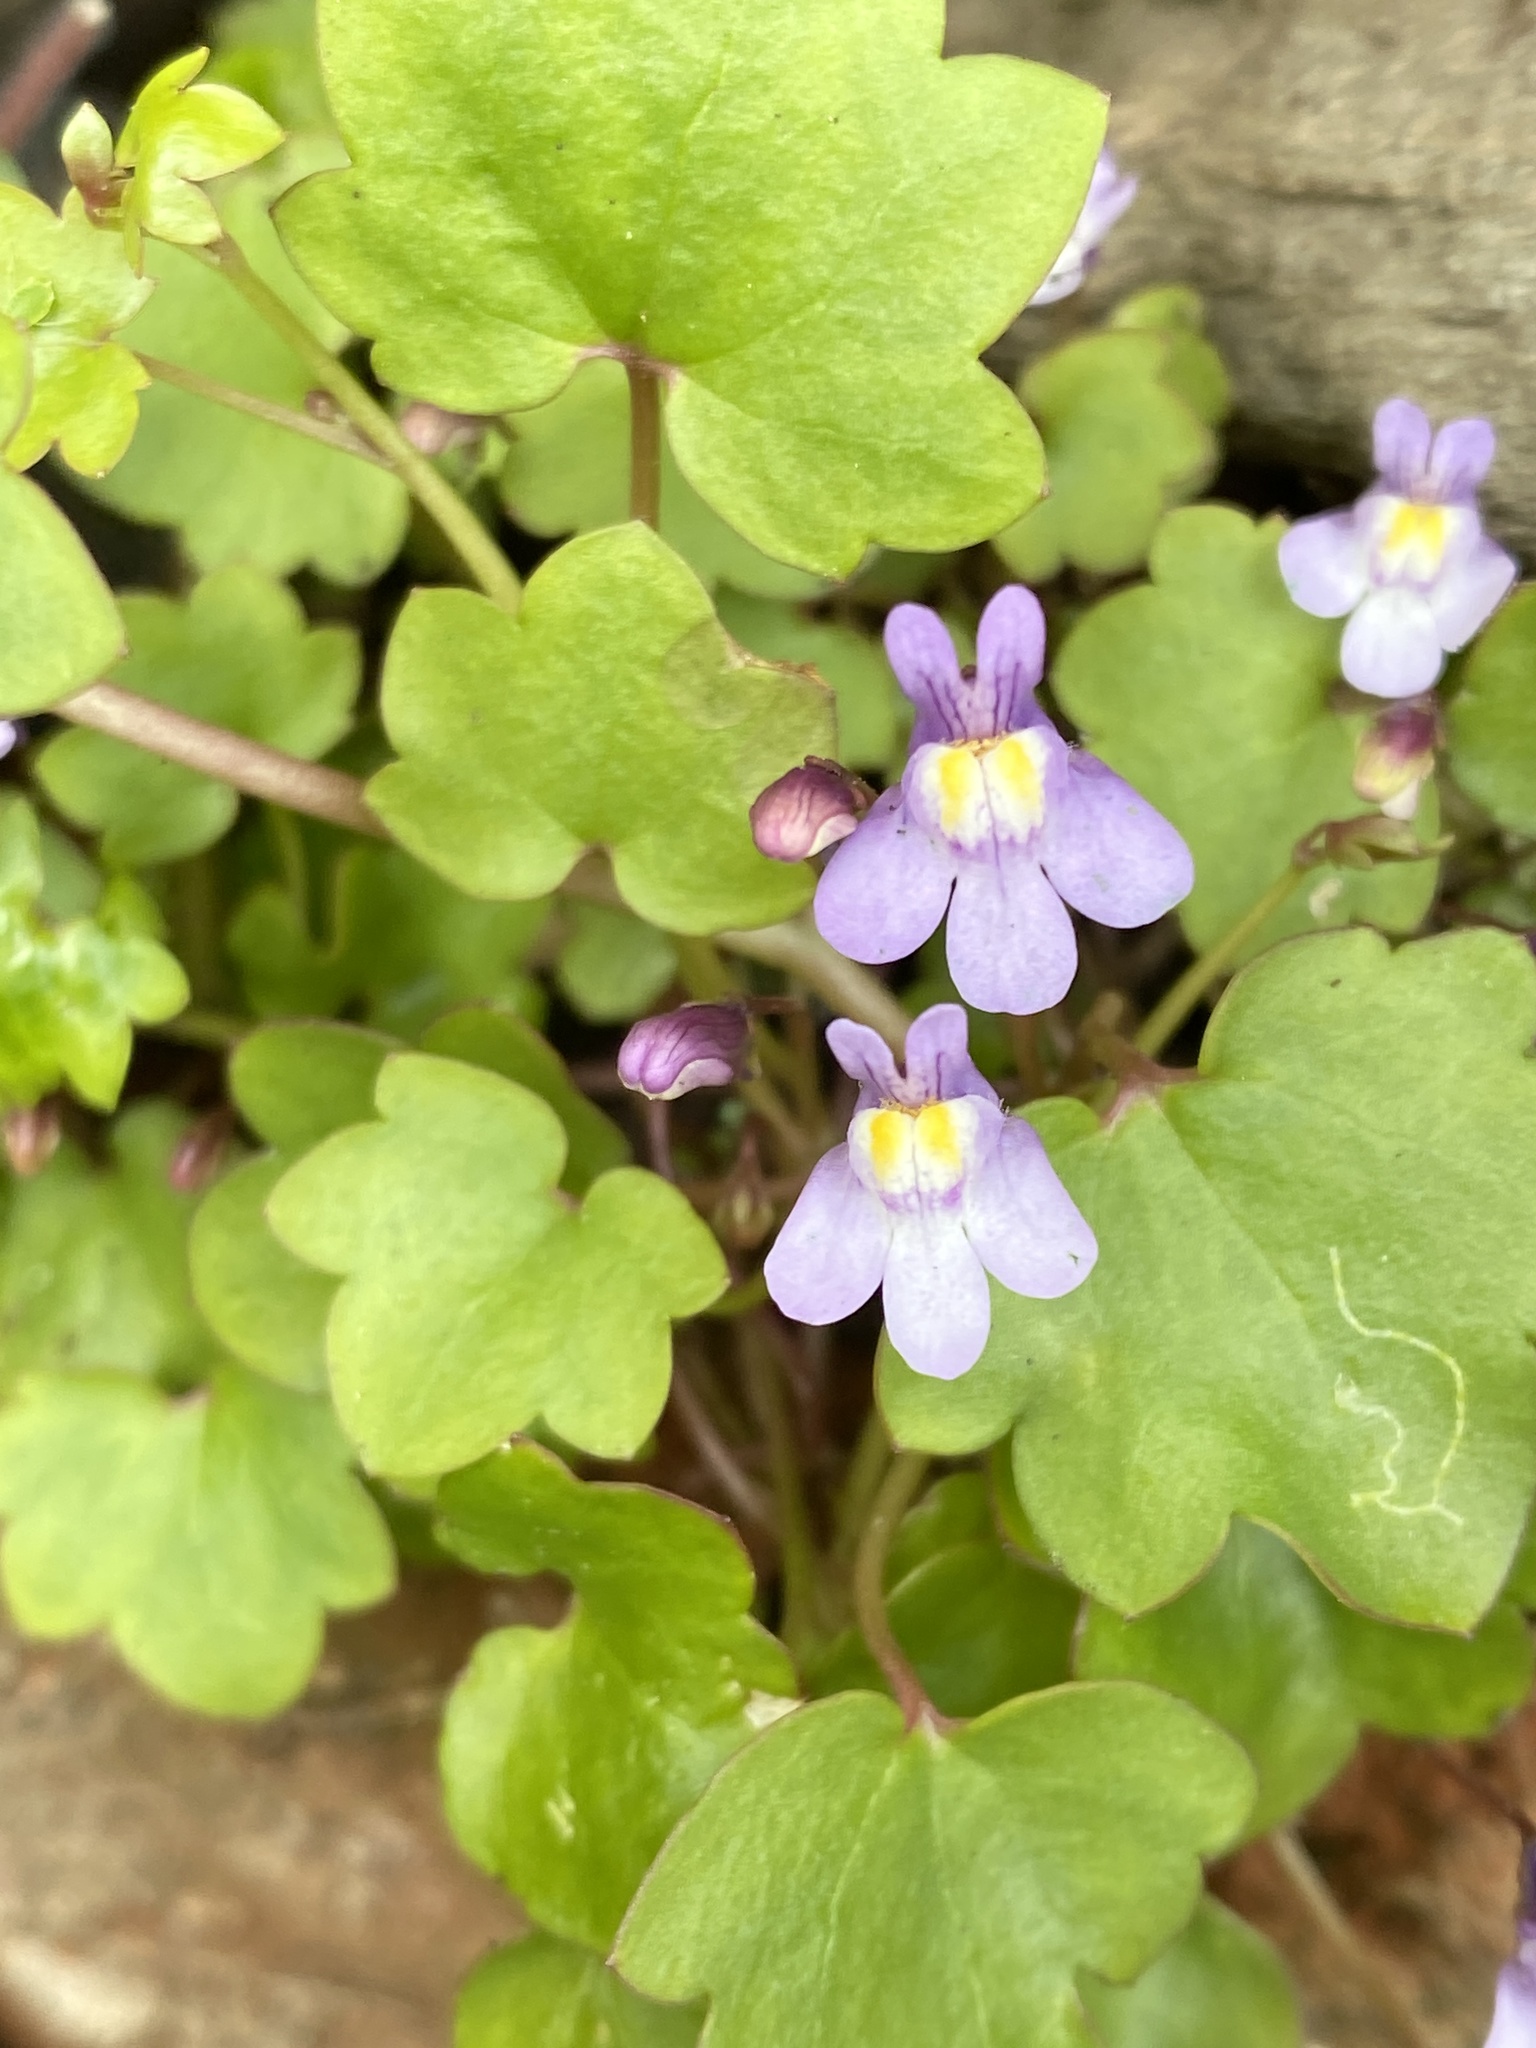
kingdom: Plantae
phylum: Tracheophyta
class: Magnoliopsida
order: Lamiales
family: Plantaginaceae
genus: Cymbalaria
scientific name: Cymbalaria muralis
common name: Ivy-leaved toadflax
